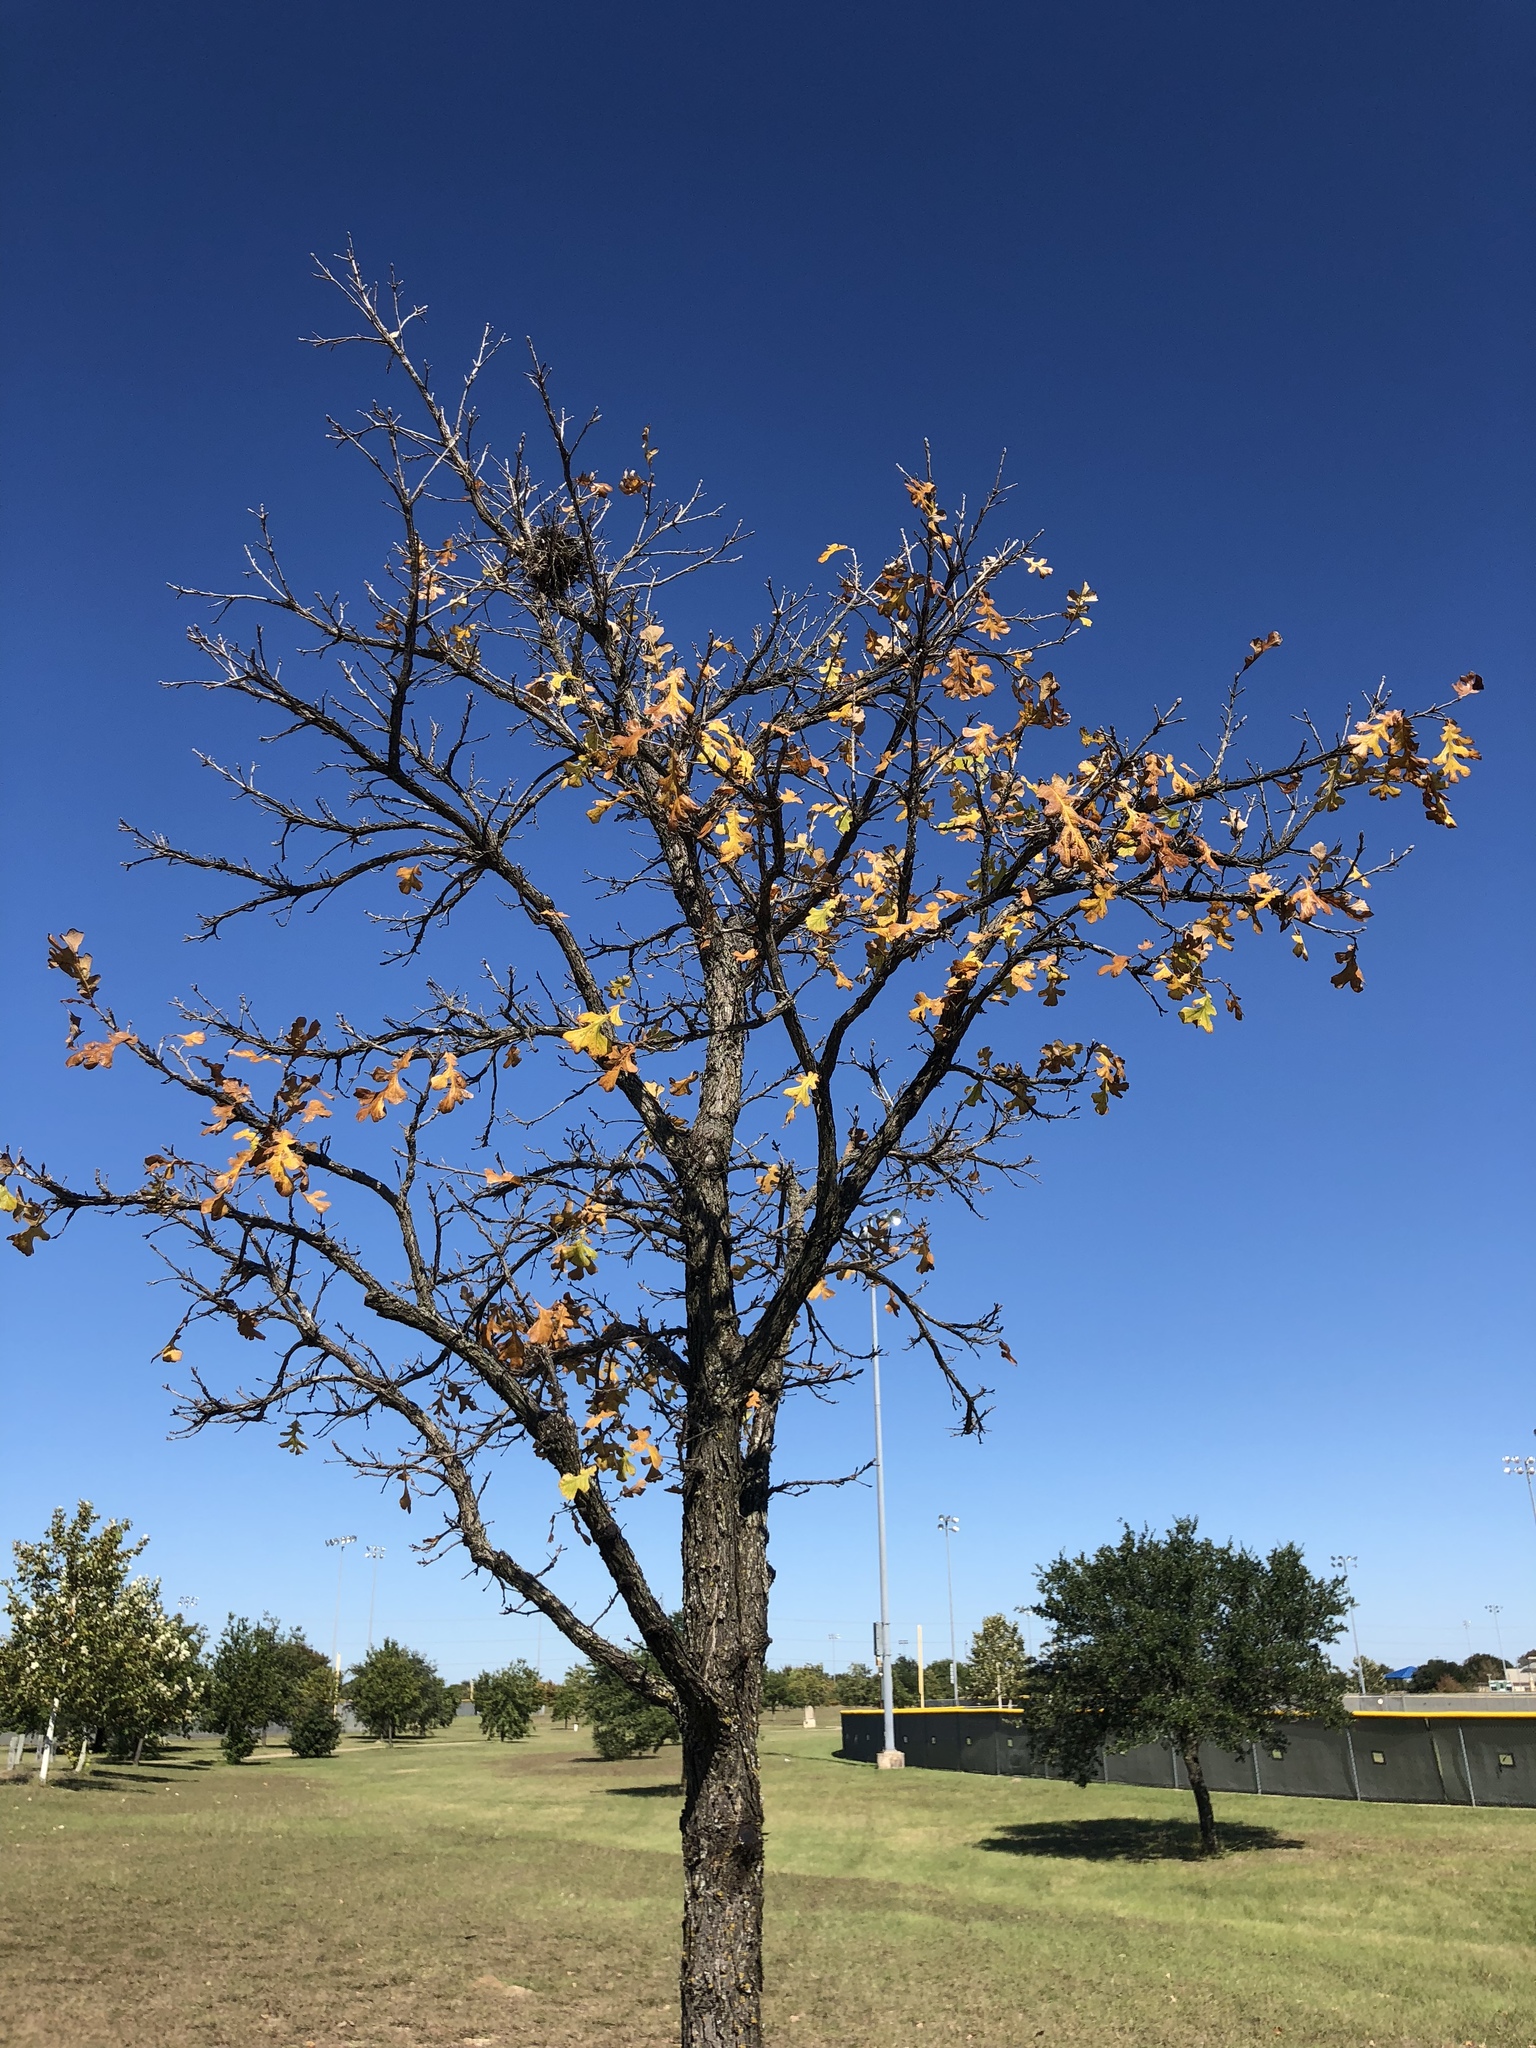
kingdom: Plantae
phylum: Tracheophyta
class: Magnoliopsida
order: Fagales
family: Fagaceae
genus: Quercus
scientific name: Quercus macrocarpa
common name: Bur oak
